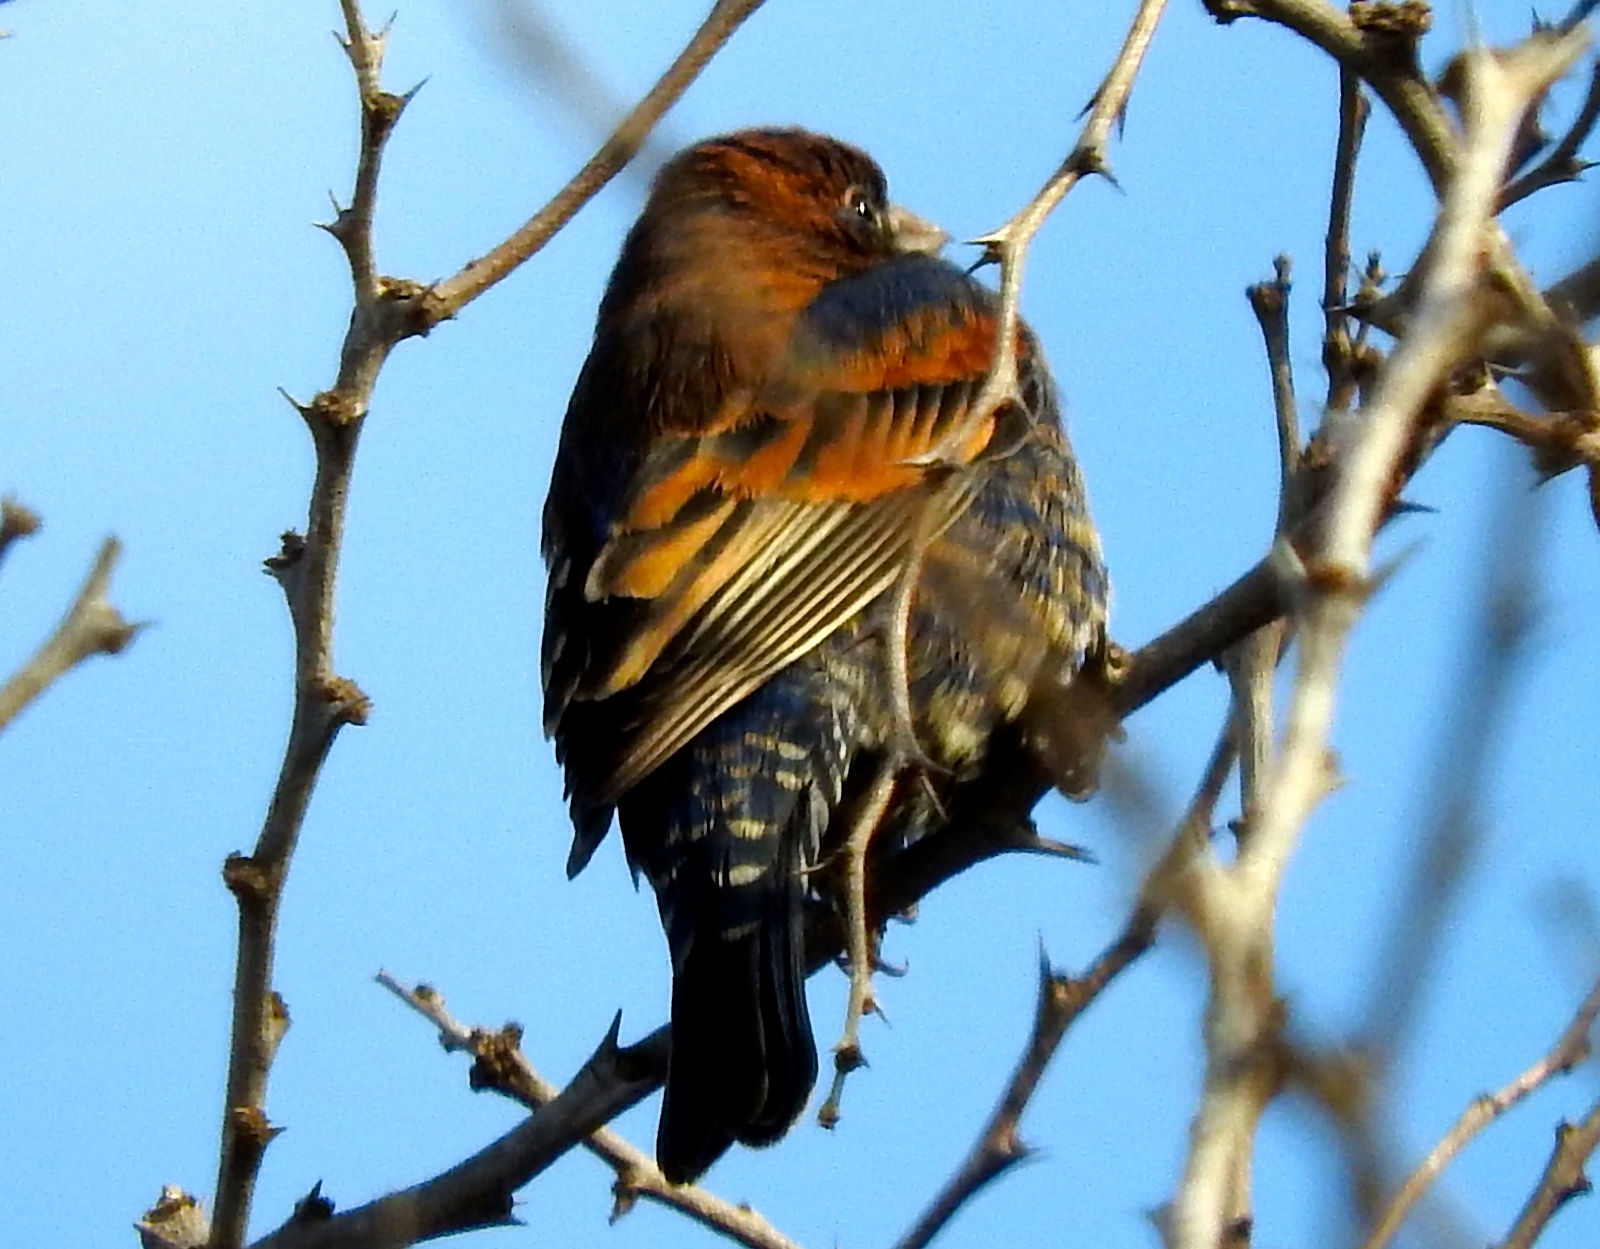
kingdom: Animalia
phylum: Chordata
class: Aves
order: Passeriformes
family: Cardinalidae
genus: Passerina
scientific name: Passerina caerulea
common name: Blue grosbeak
